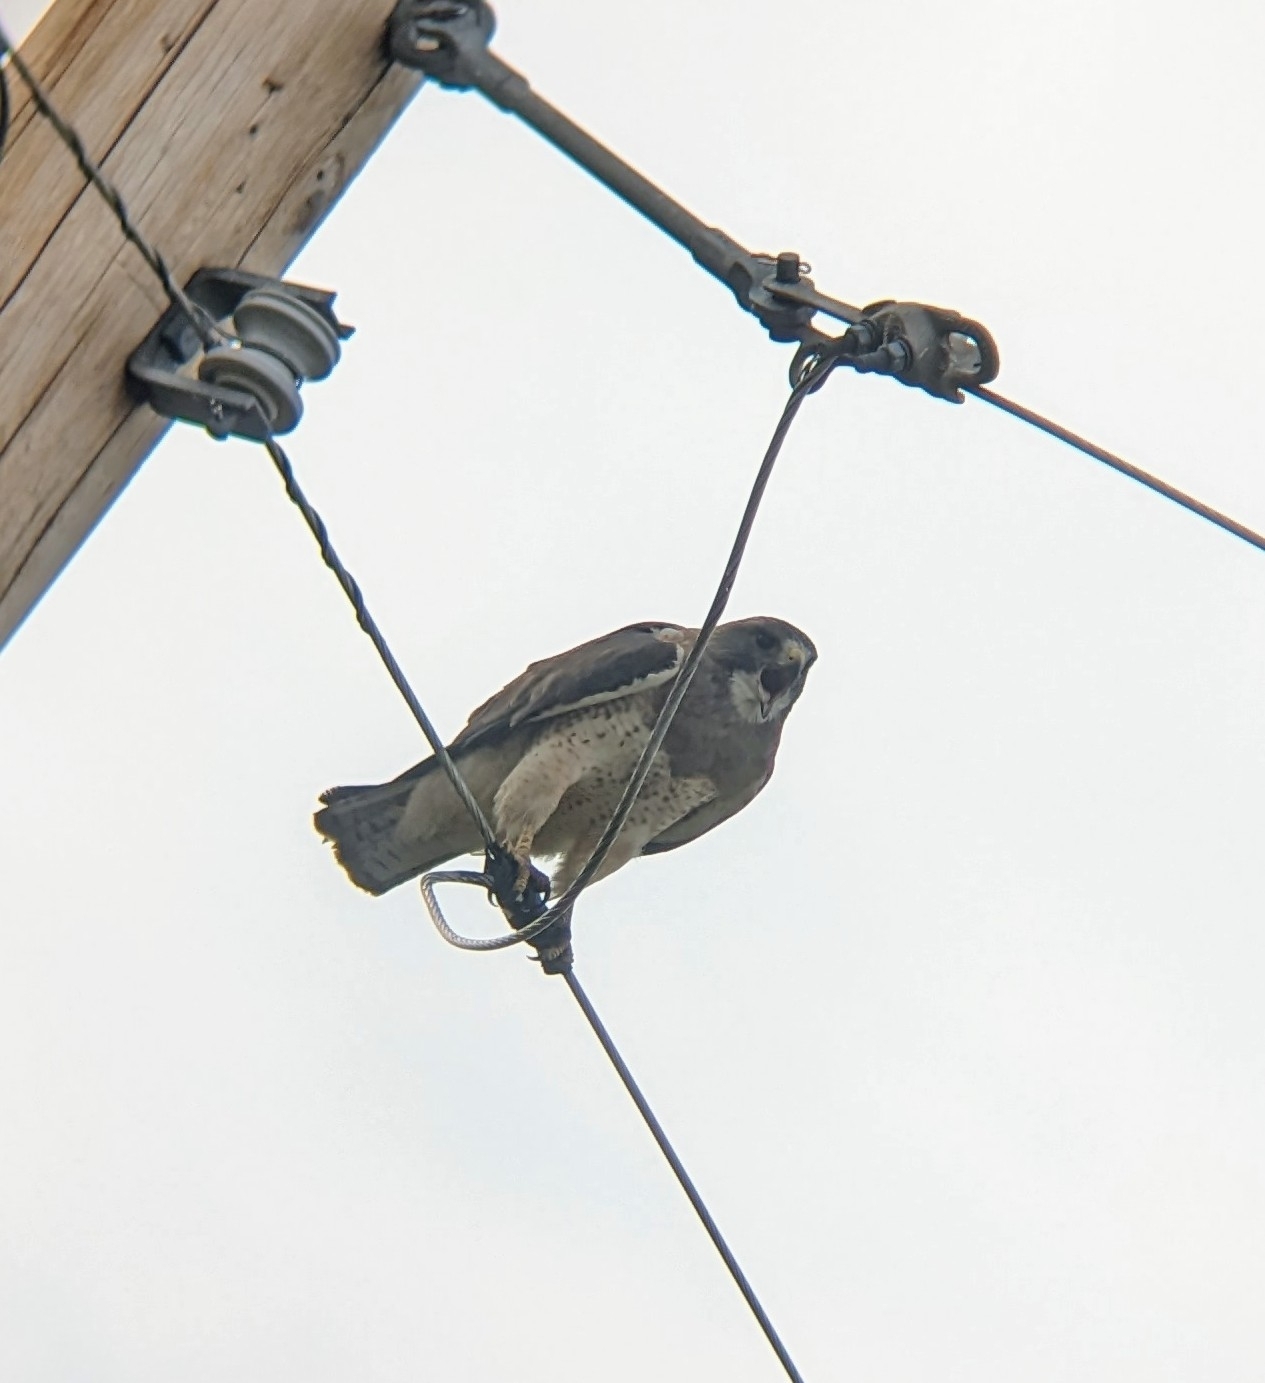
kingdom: Animalia
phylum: Chordata
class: Aves
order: Accipitriformes
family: Accipitridae
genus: Buteo
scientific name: Buteo swainsoni
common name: Swainson's hawk
